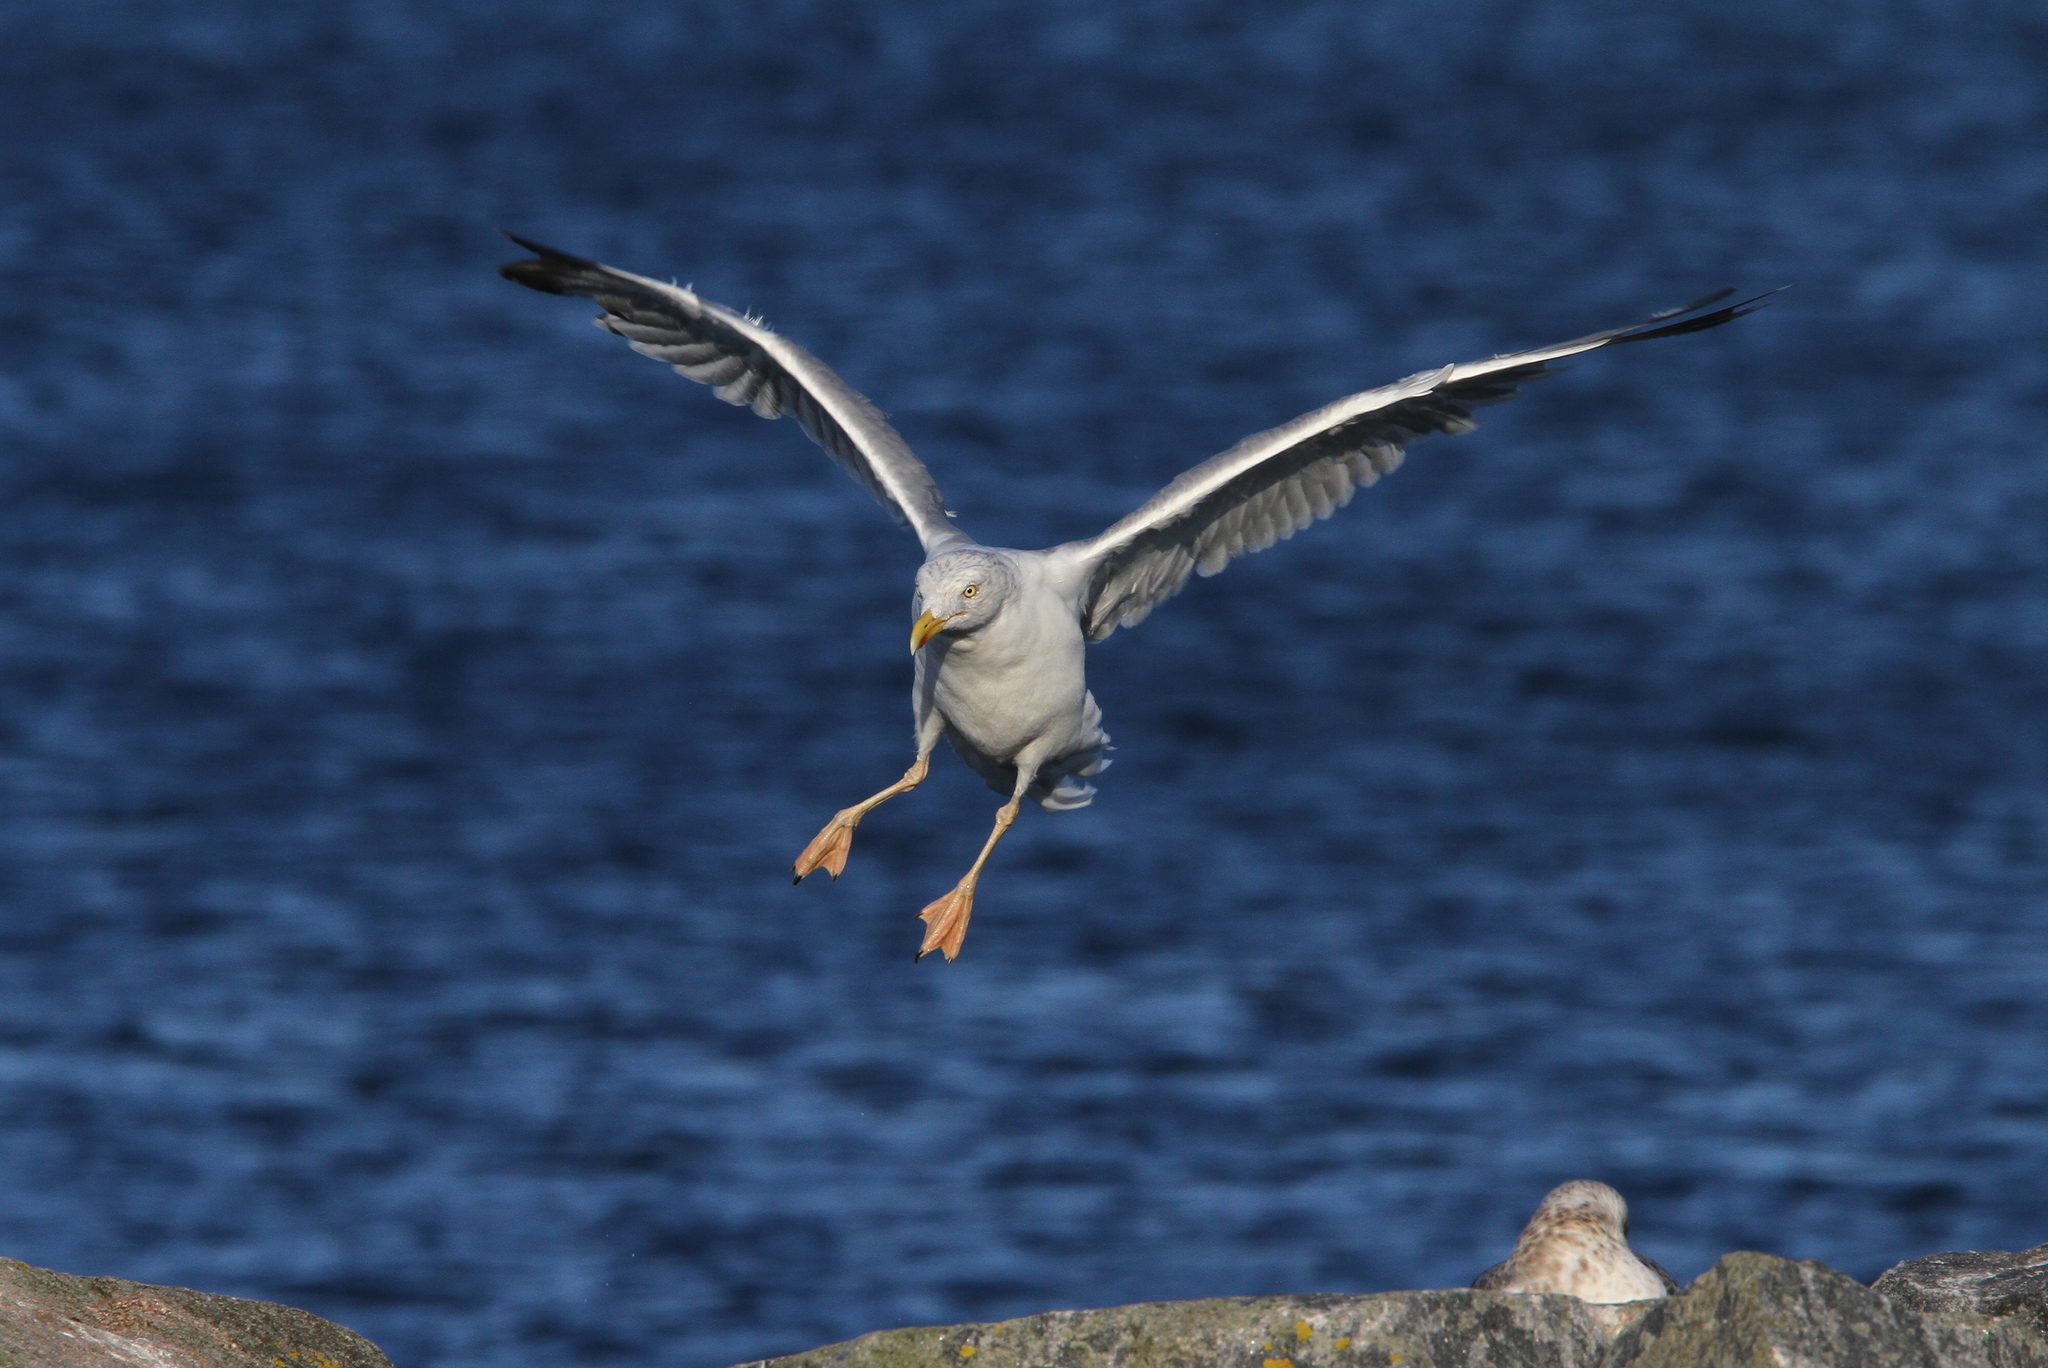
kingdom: Animalia
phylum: Chordata
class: Aves
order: Charadriiformes
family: Laridae
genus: Larus
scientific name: Larus argentatus
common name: Herring gull
